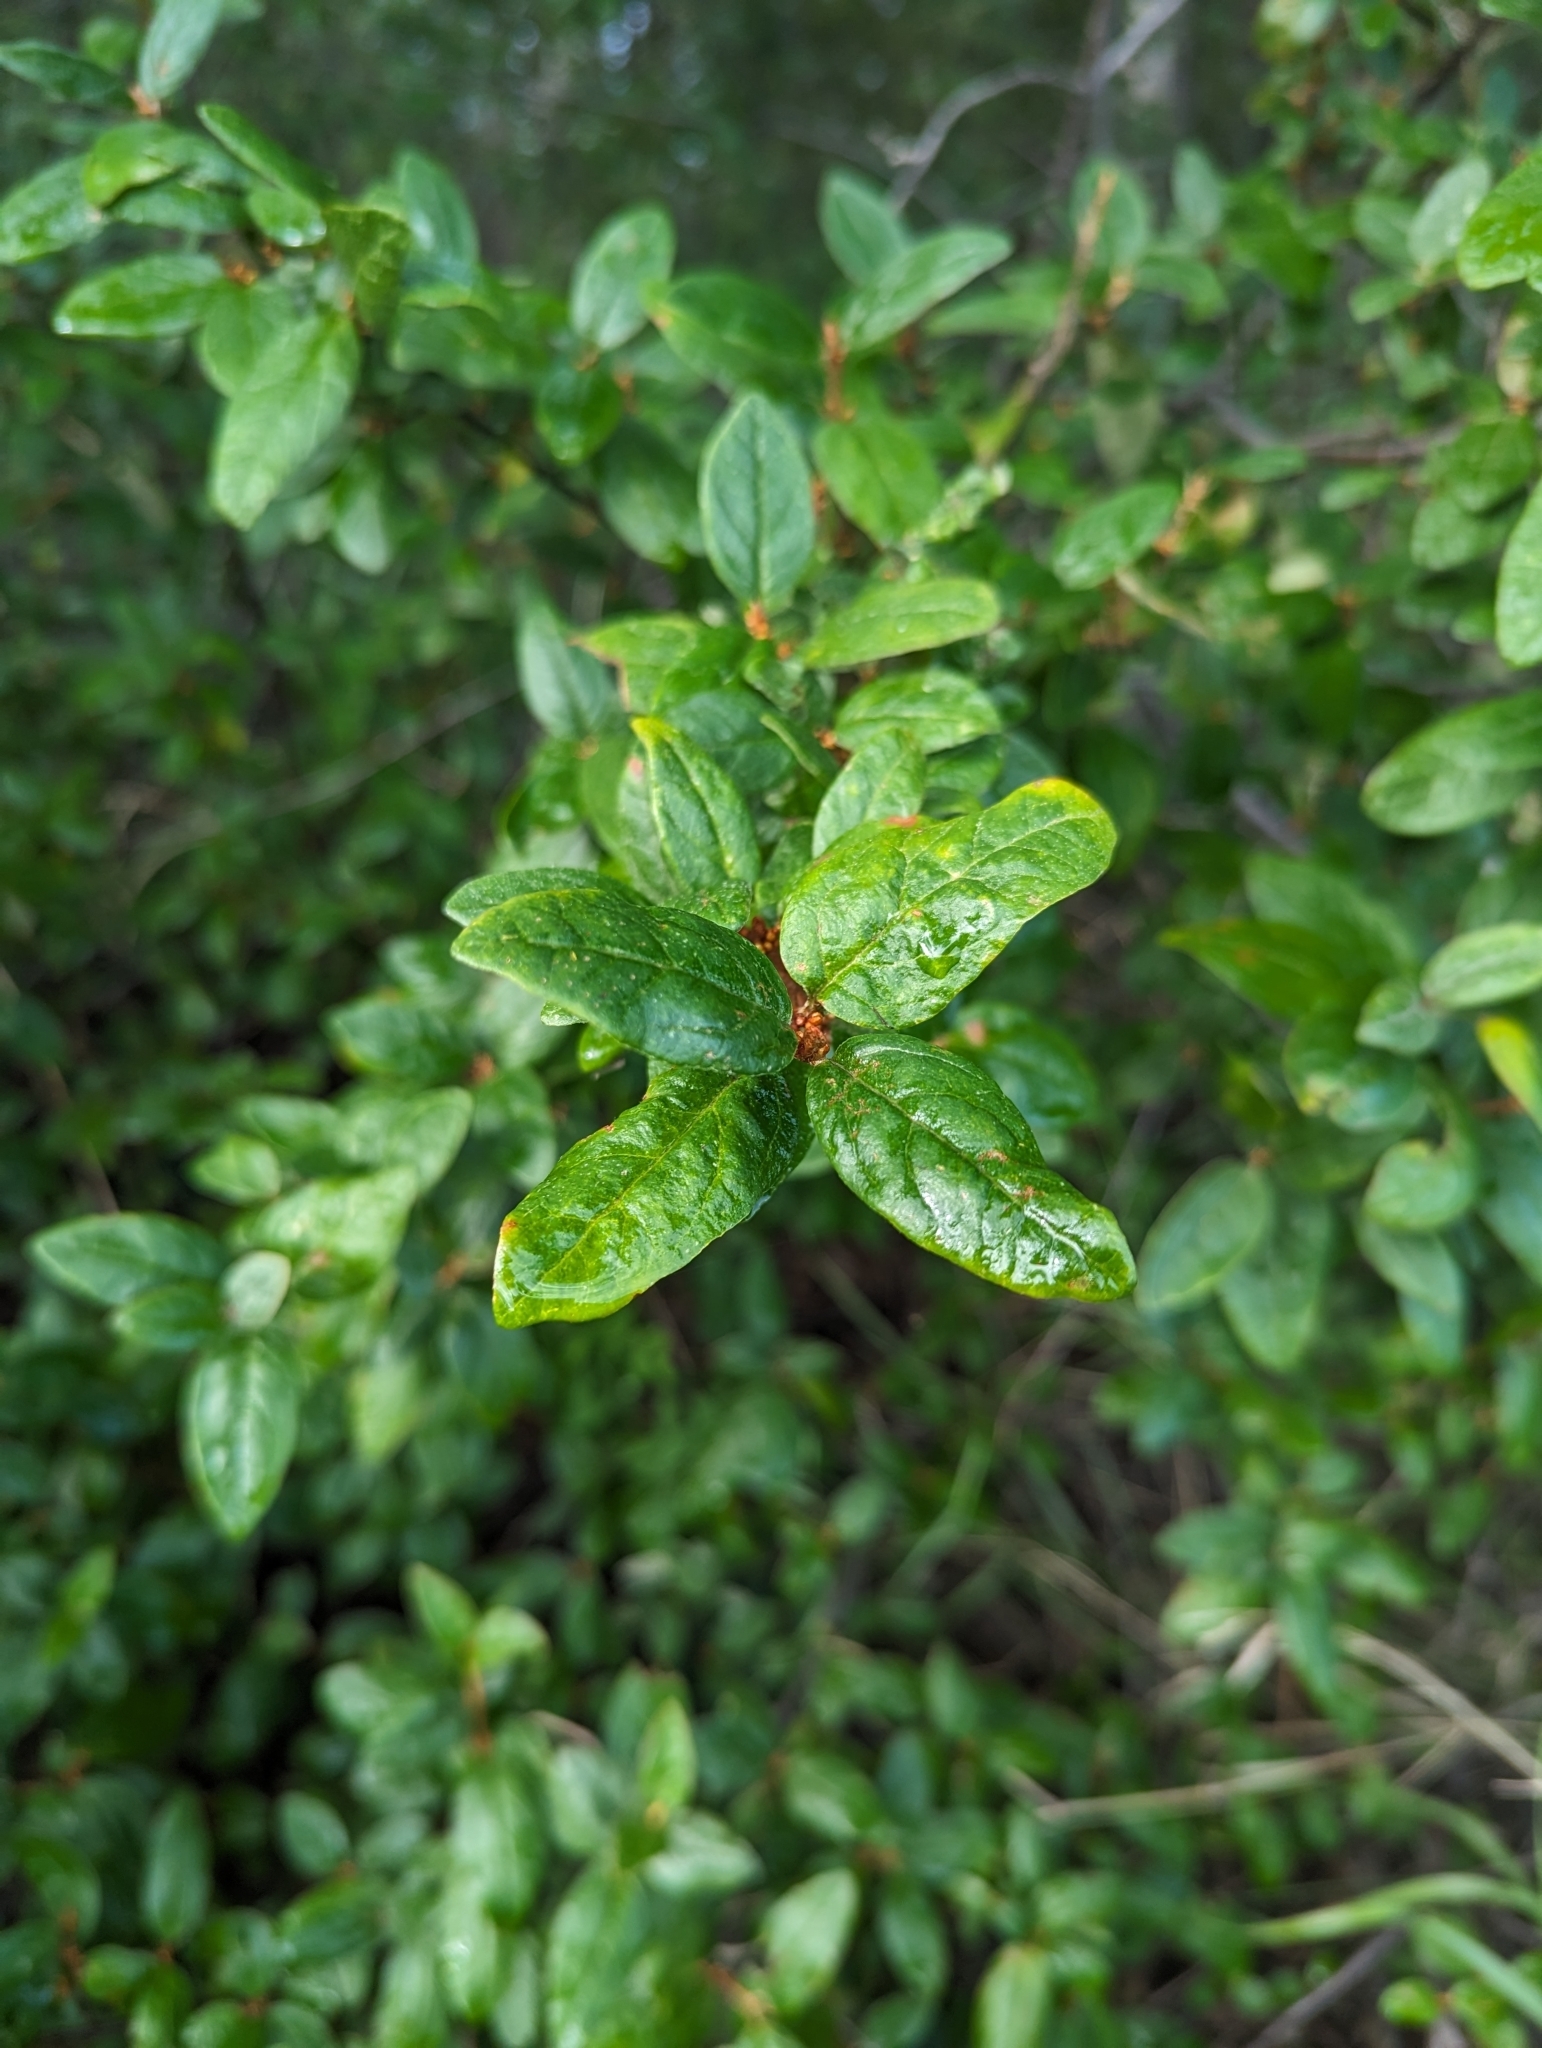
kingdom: Plantae
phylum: Tracheophyta
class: Magnoliopsida
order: Rosales
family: Elaeagnaceae
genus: Shepherdia
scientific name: Shepherdia canadensis
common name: Soapberry
